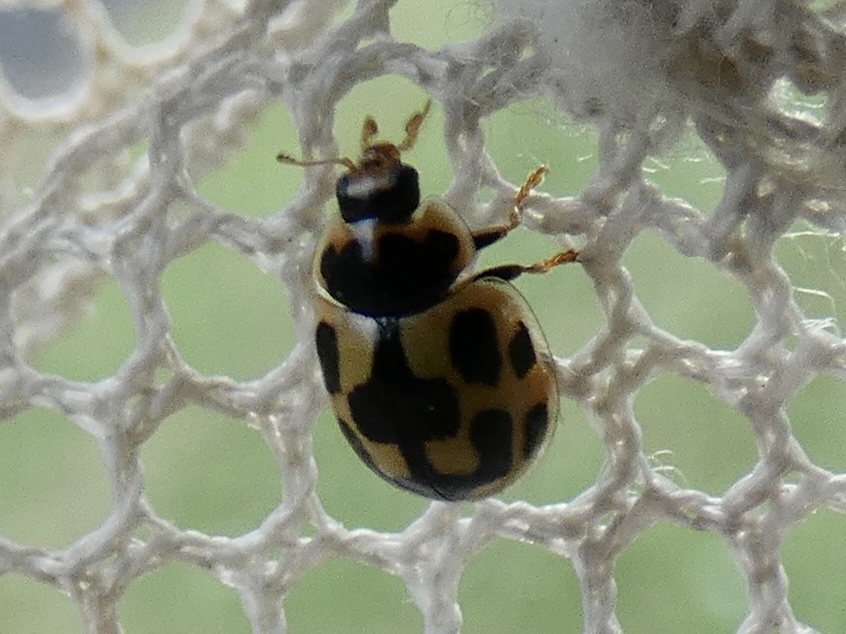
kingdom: Animalia
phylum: Arthropoda
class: Insecta
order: Coleoptera
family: Coccinellidae
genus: Propylaea
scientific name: Propylaea quatuordecimpunctata
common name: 14-spotted ladybird beetle
